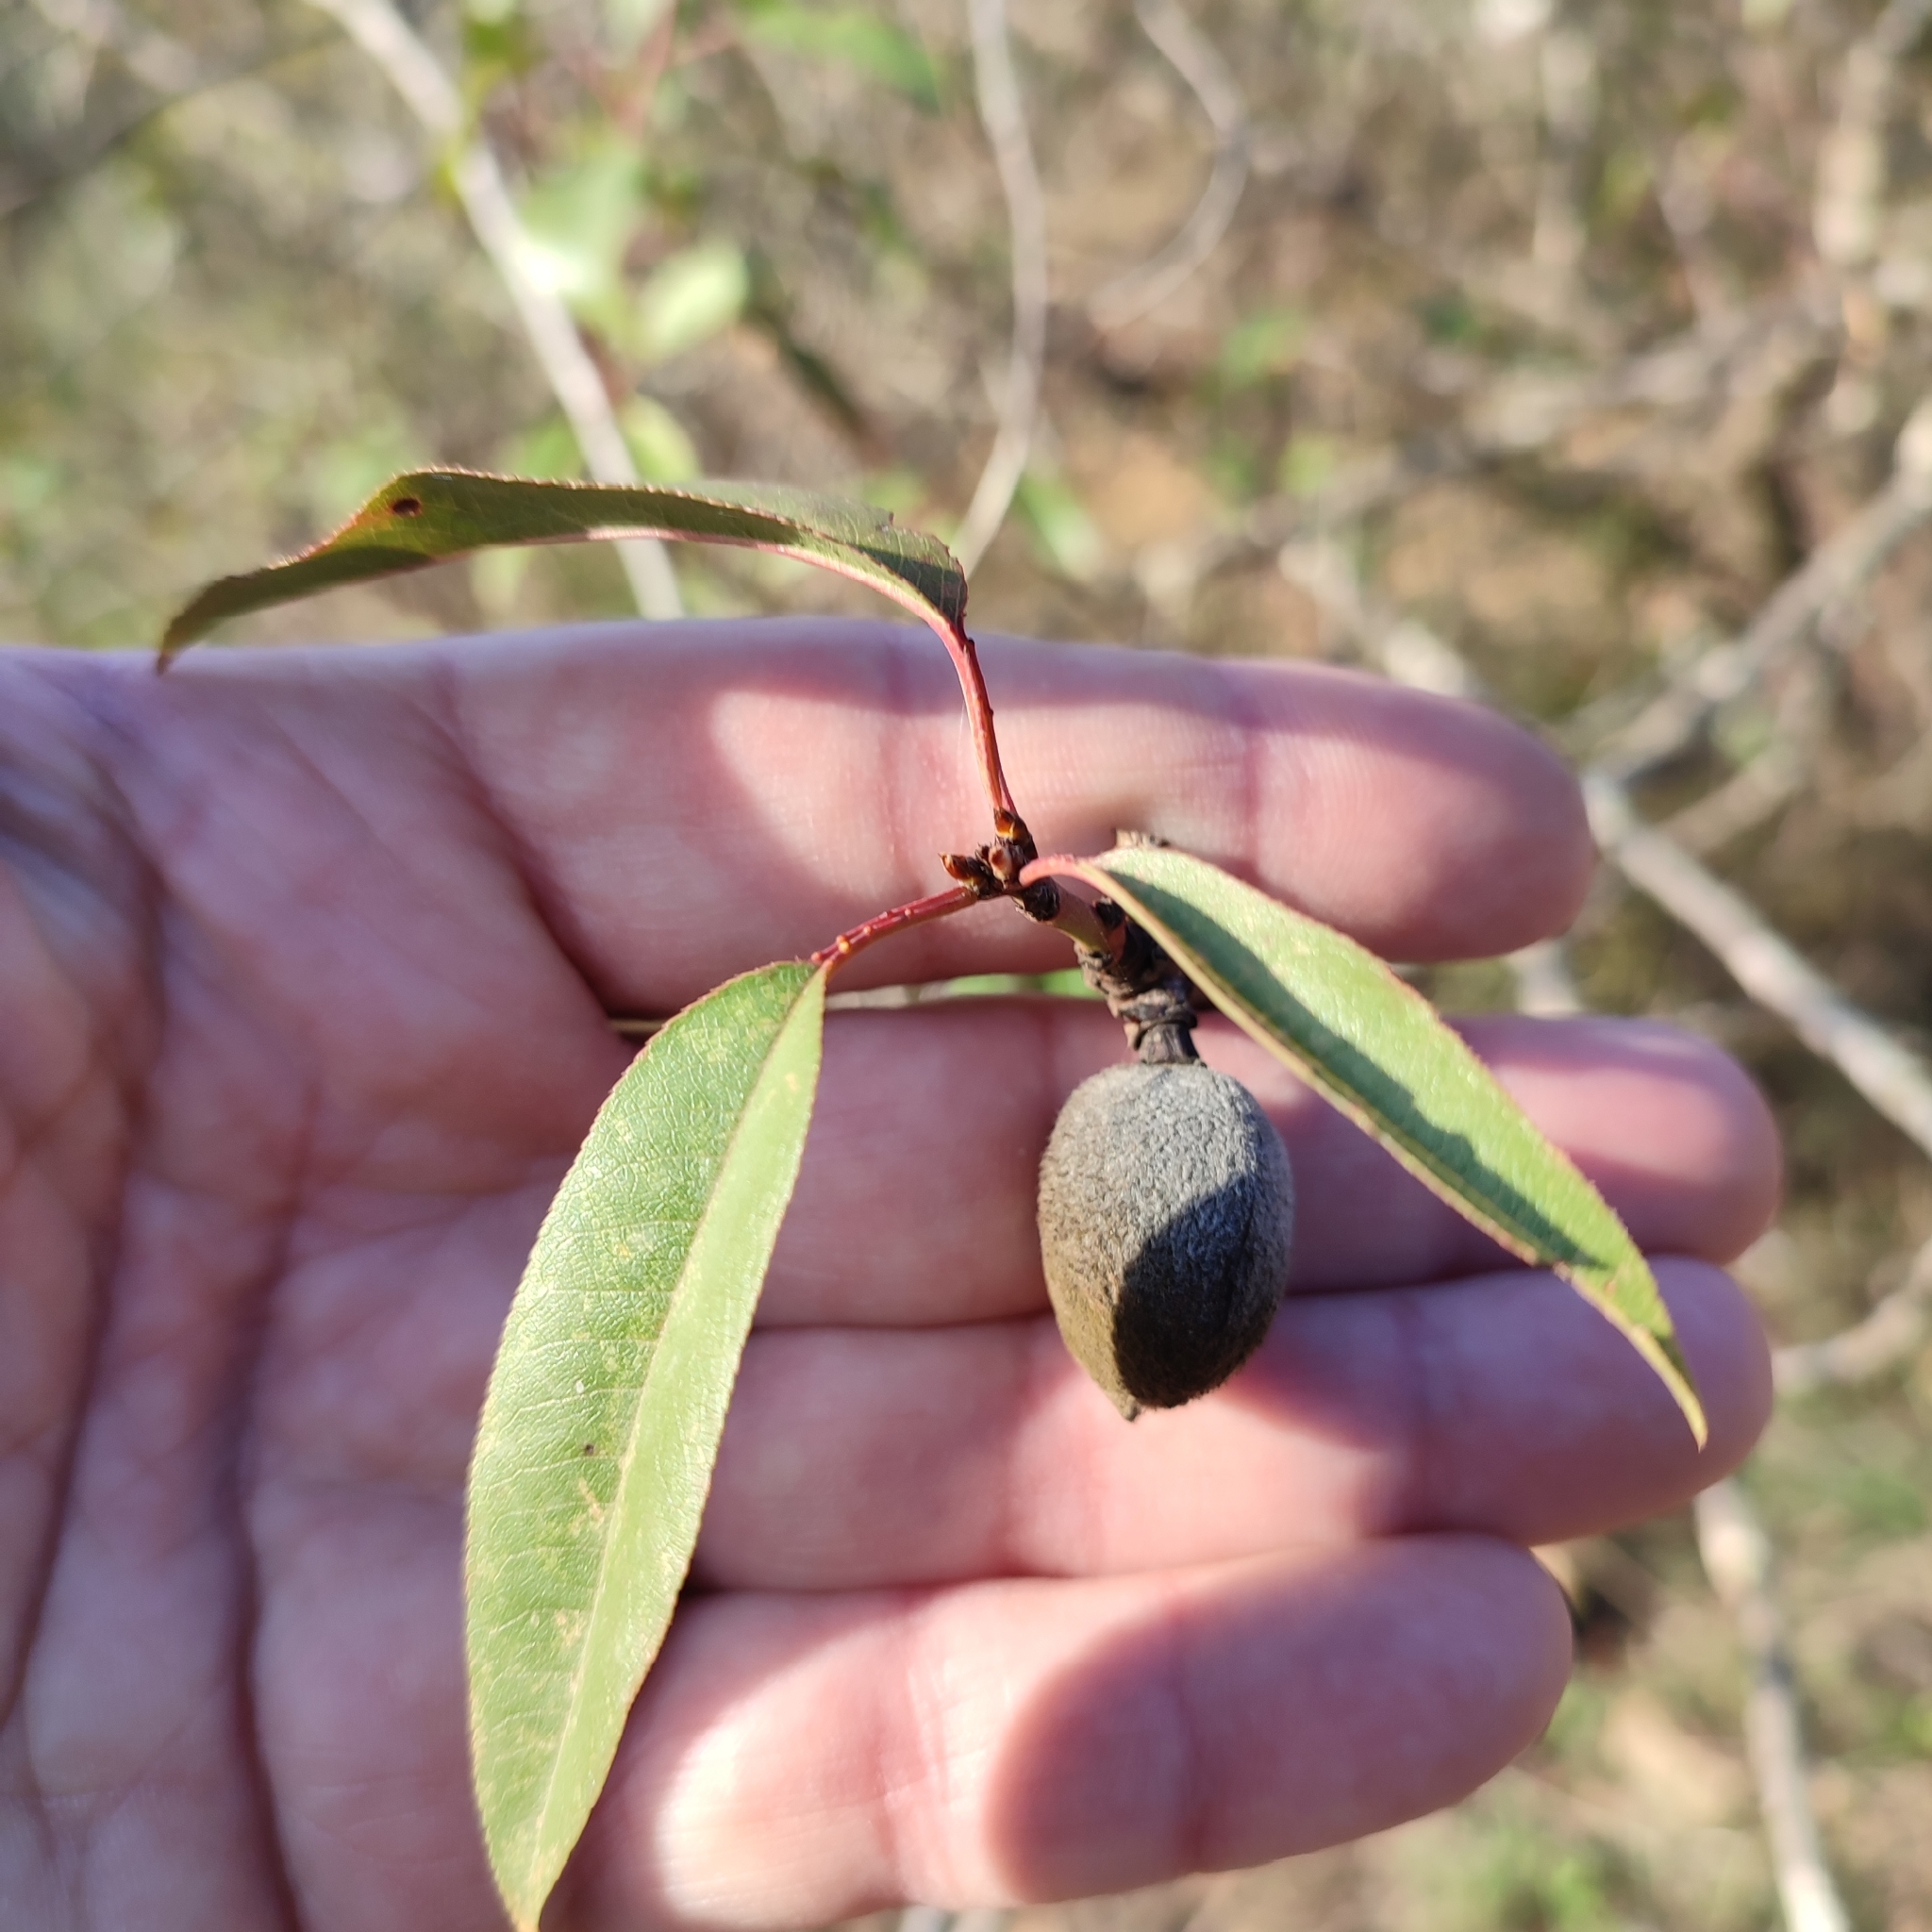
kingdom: Plantae
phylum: Tracheophyta
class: Magnoliopsida
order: Rosales
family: Rosaceae
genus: Prunus
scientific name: Prunus amygdalus
